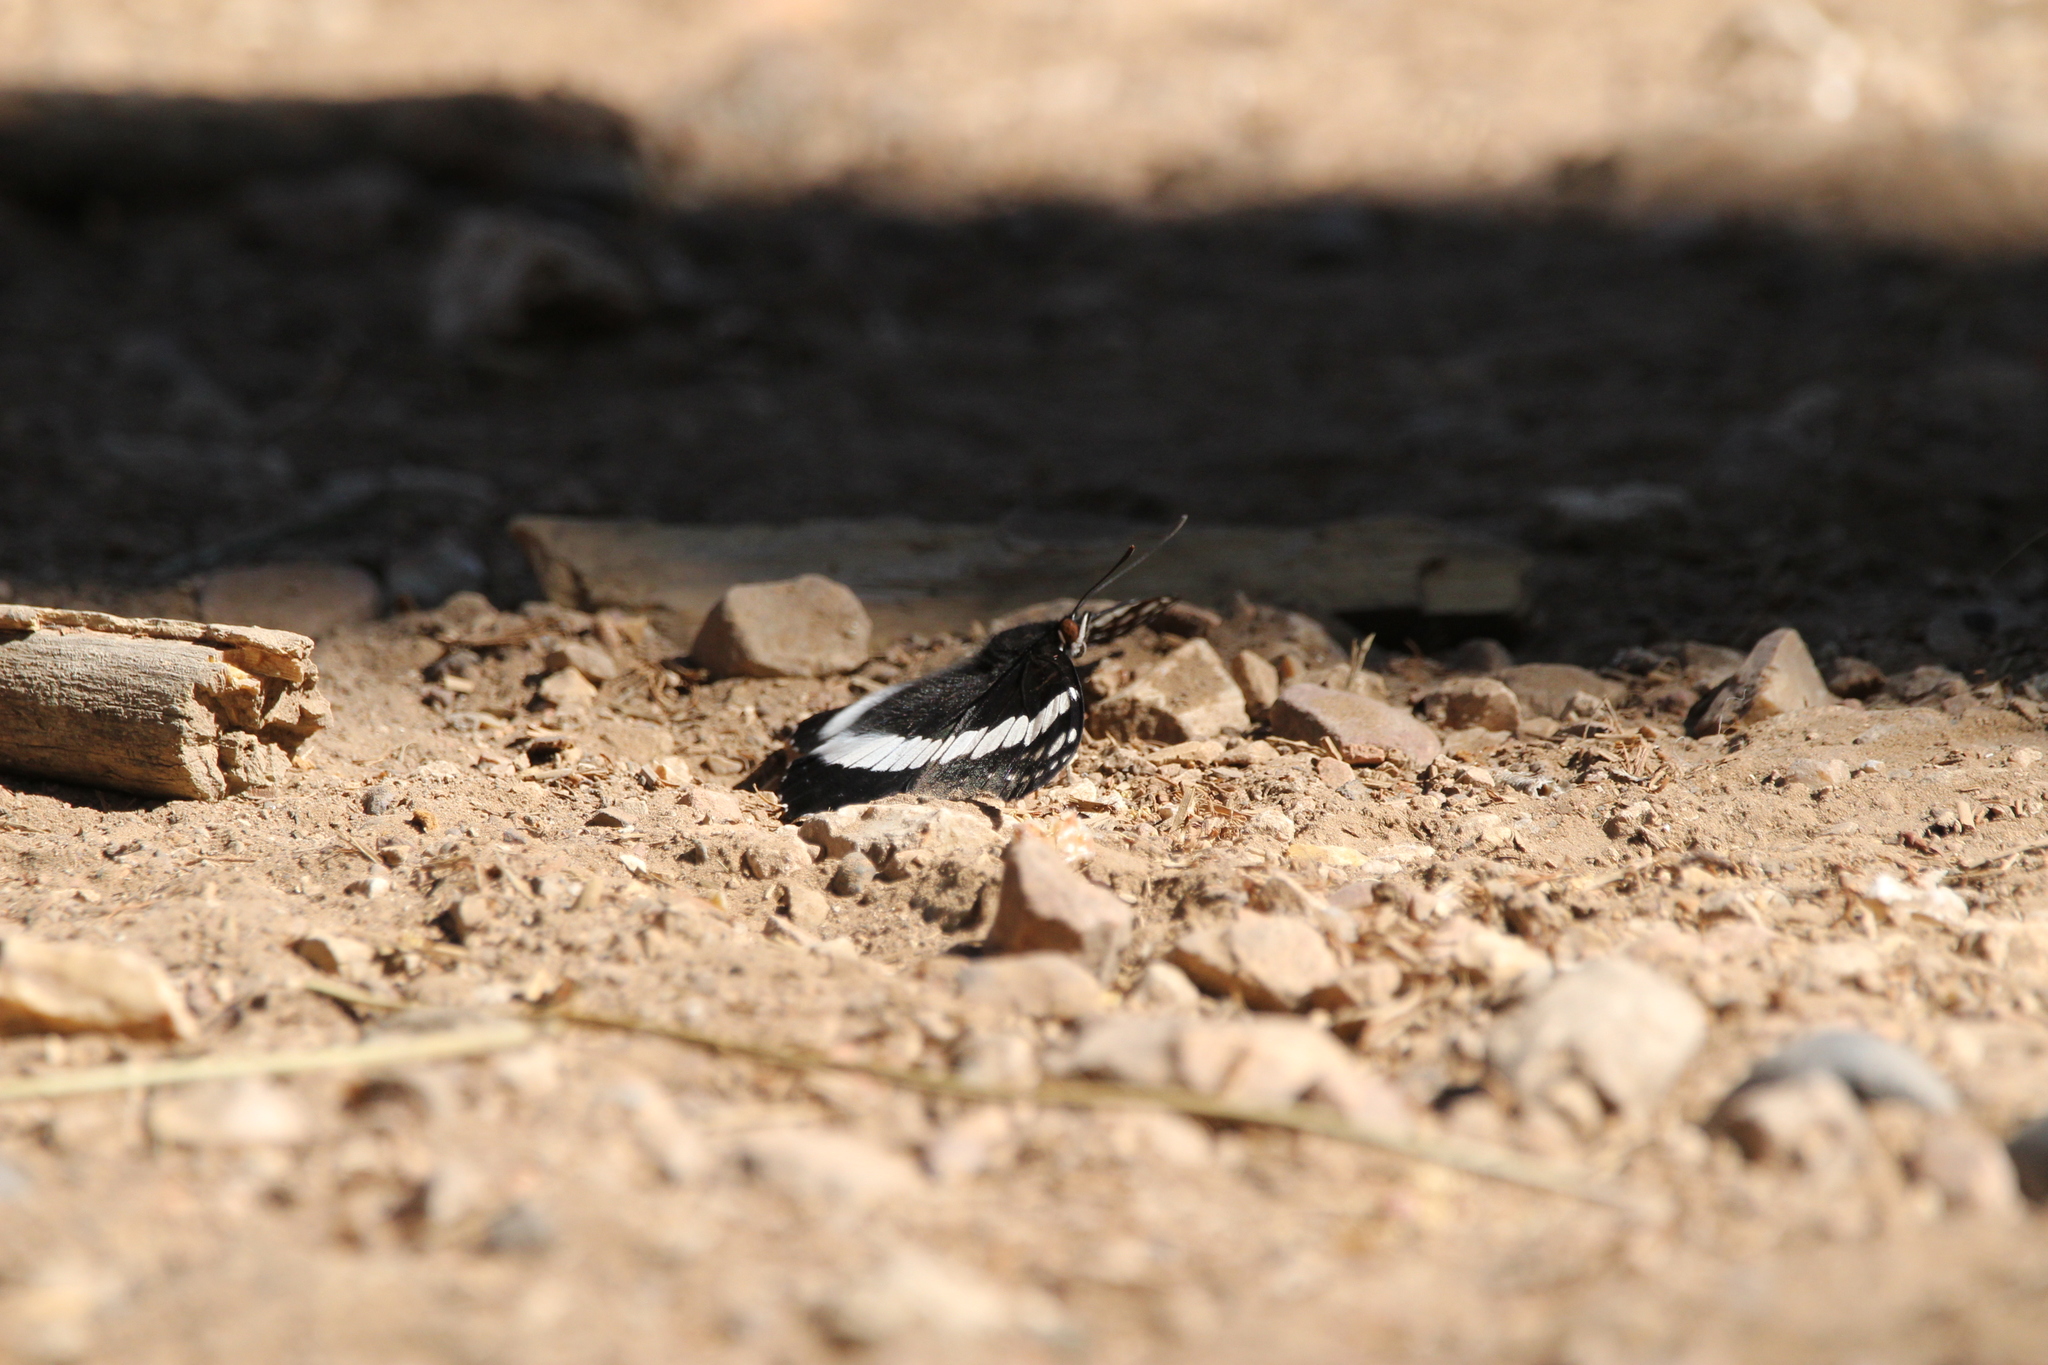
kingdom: Animalia
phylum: Arthropoda
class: Insecta
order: Lepidoptera
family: Nymphalidae
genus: Limenitis
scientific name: Limenitis weidemeyerii
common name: Weidemeyer's admiral
